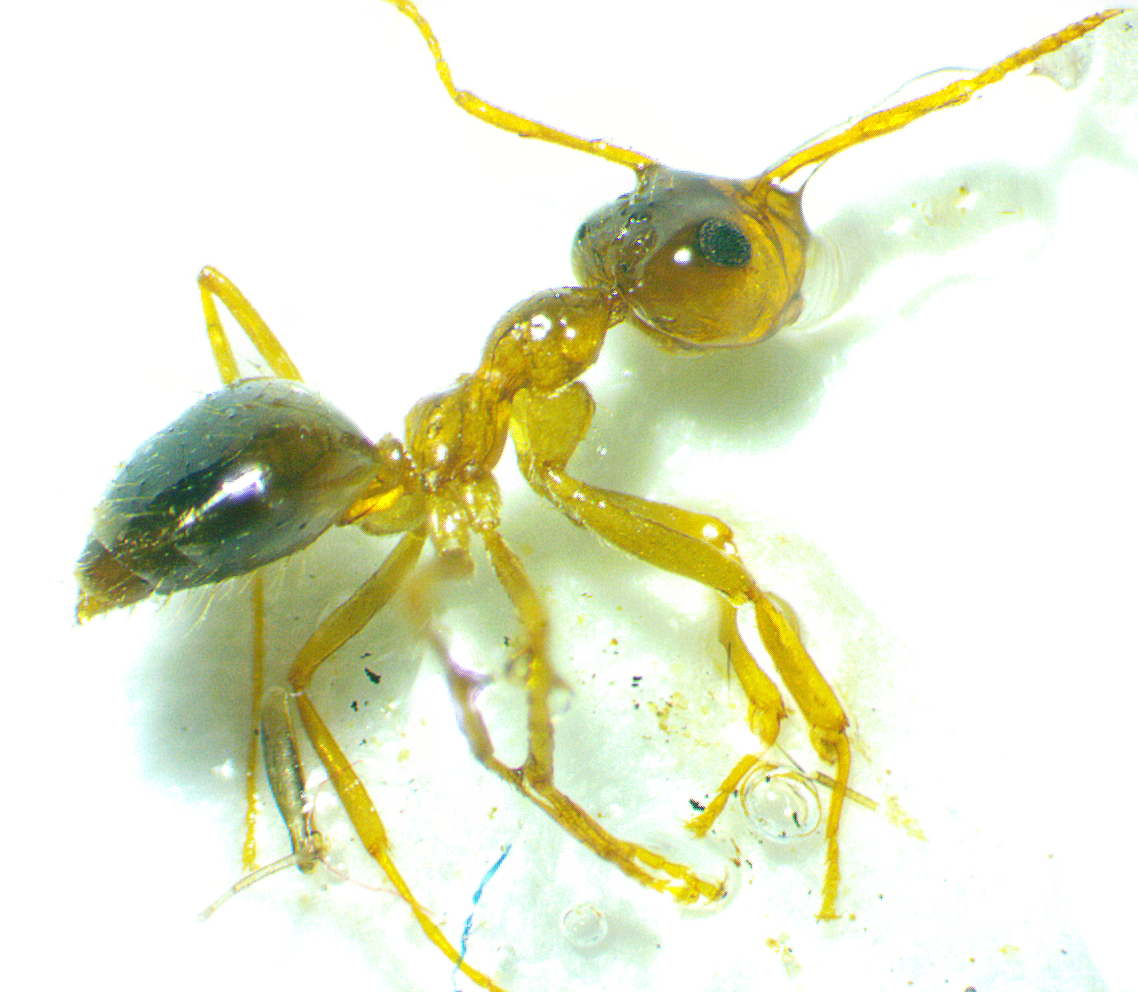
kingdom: Animalia
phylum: Arthropoda
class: Insecta
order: Hymenoptera
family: Formicidae
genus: Prenolepis
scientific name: Prenolepis imparis
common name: Small honey ant
